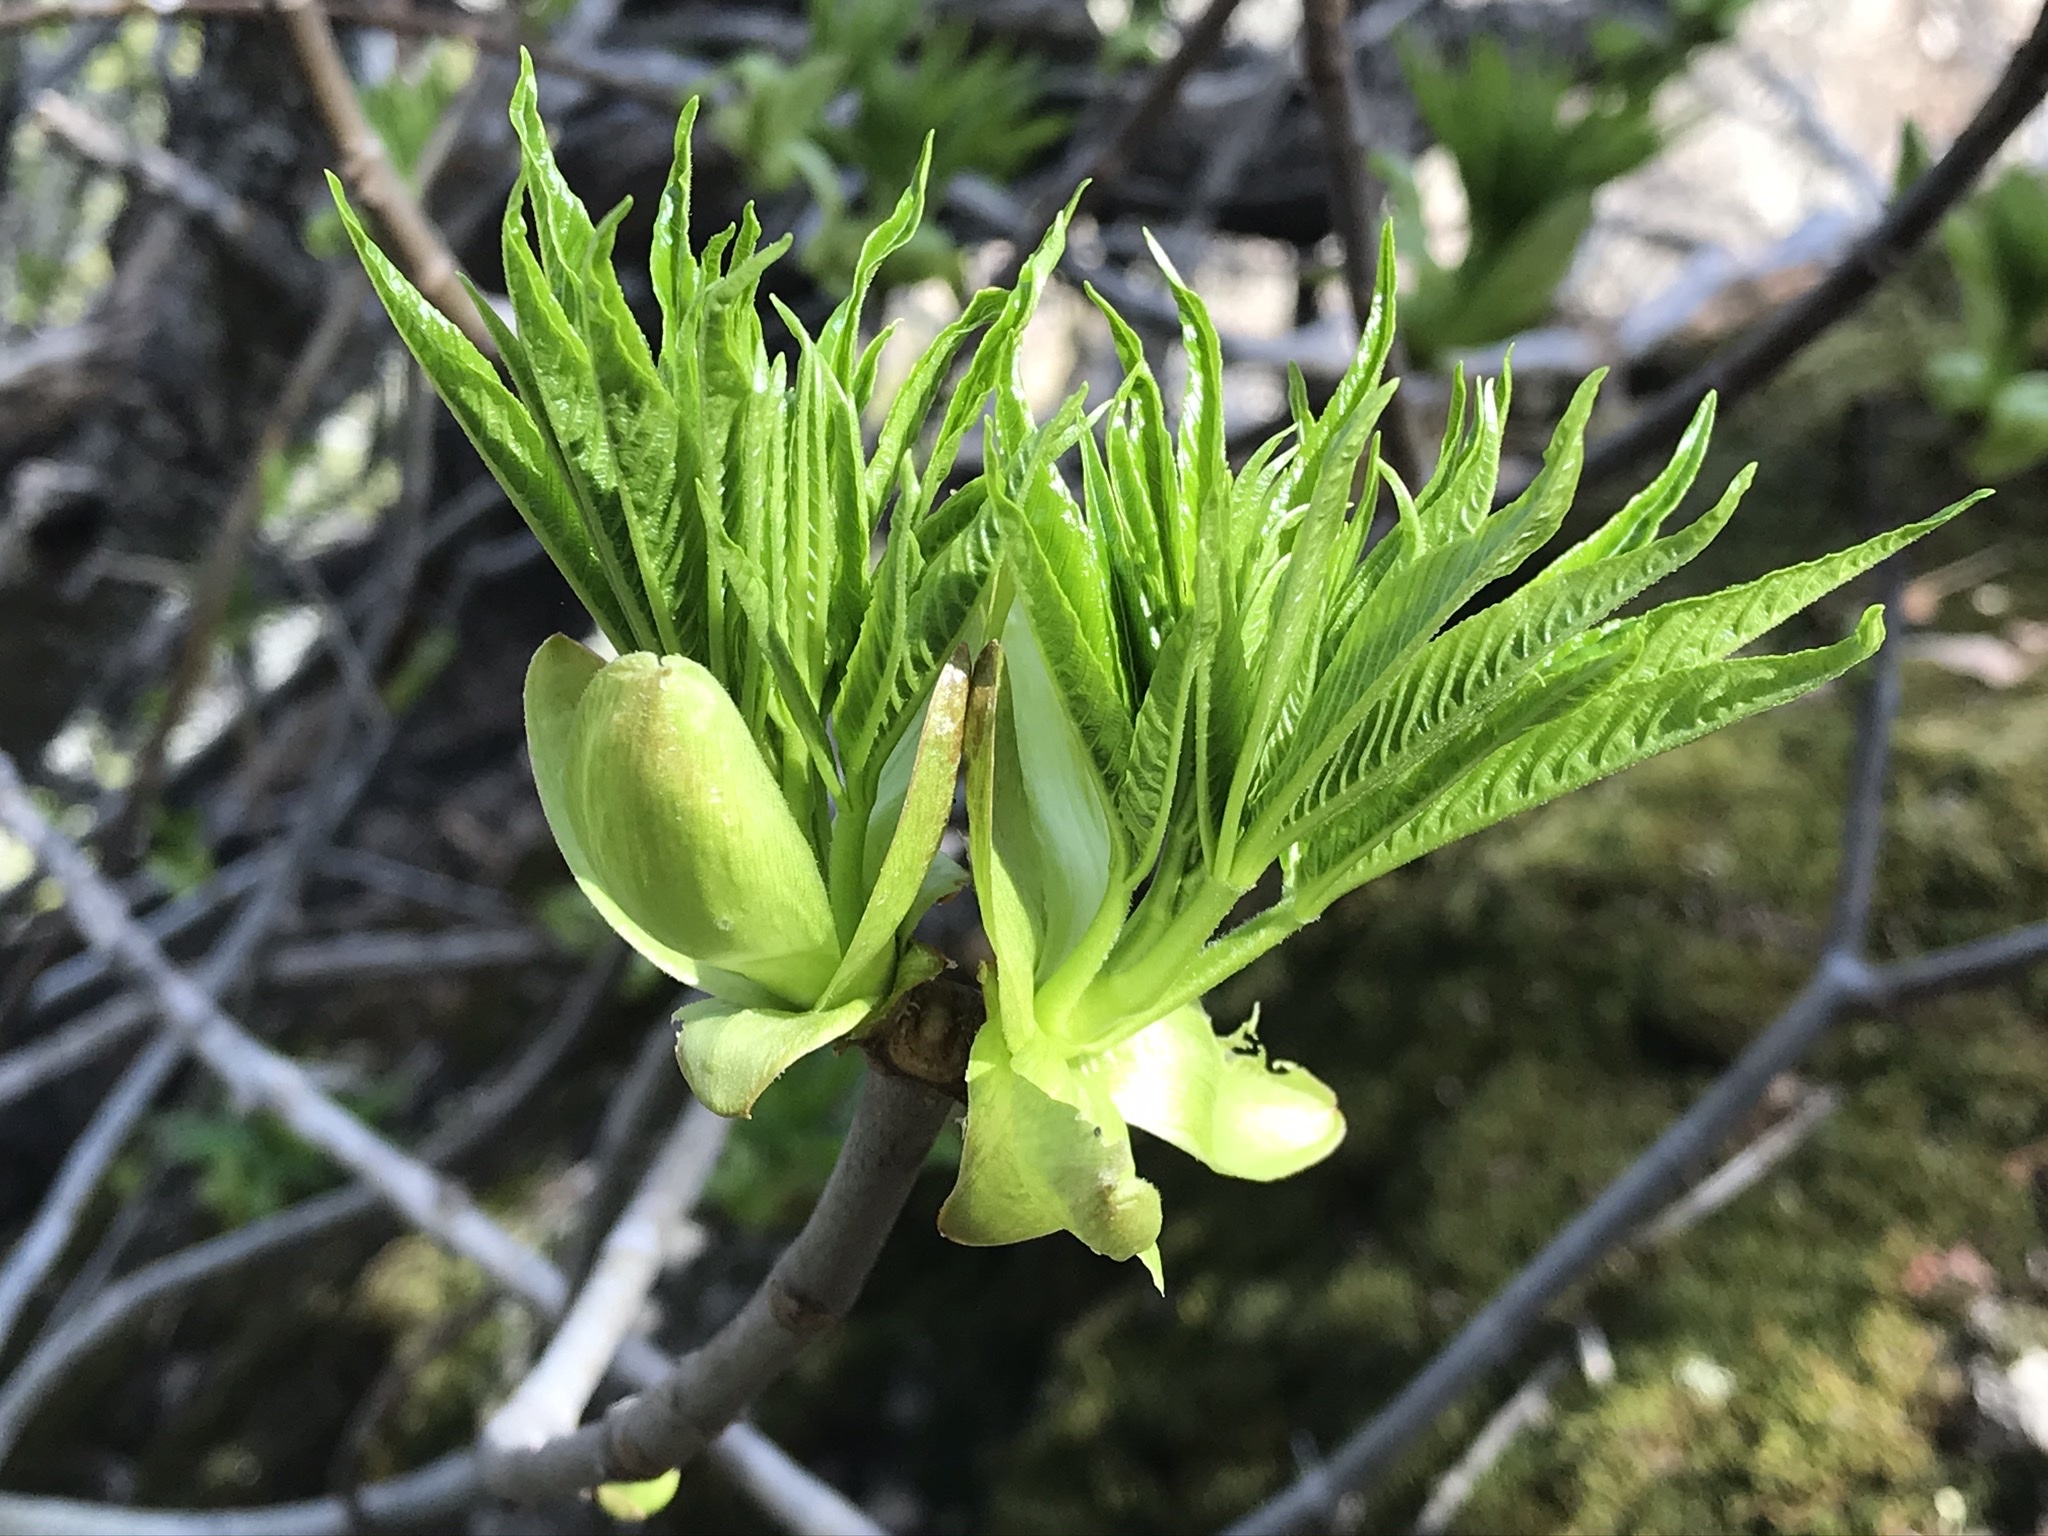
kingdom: Plantae
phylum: Tracheophyta
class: Magnoliopsida
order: Sapindales
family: Sapindaceae
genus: Aesculus
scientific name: Aesculus californica
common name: California buckeye
